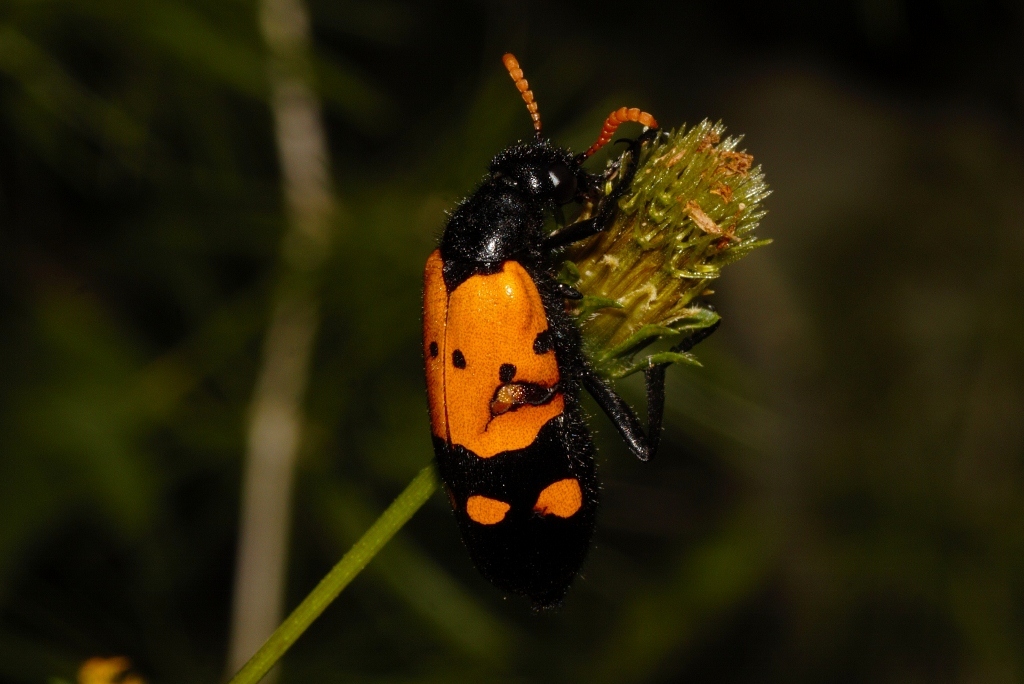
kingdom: Animalia
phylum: Arthropoda
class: Insecta
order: Coleoptera
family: Meloidae
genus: Hycleus
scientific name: Hycleus tristigmus
